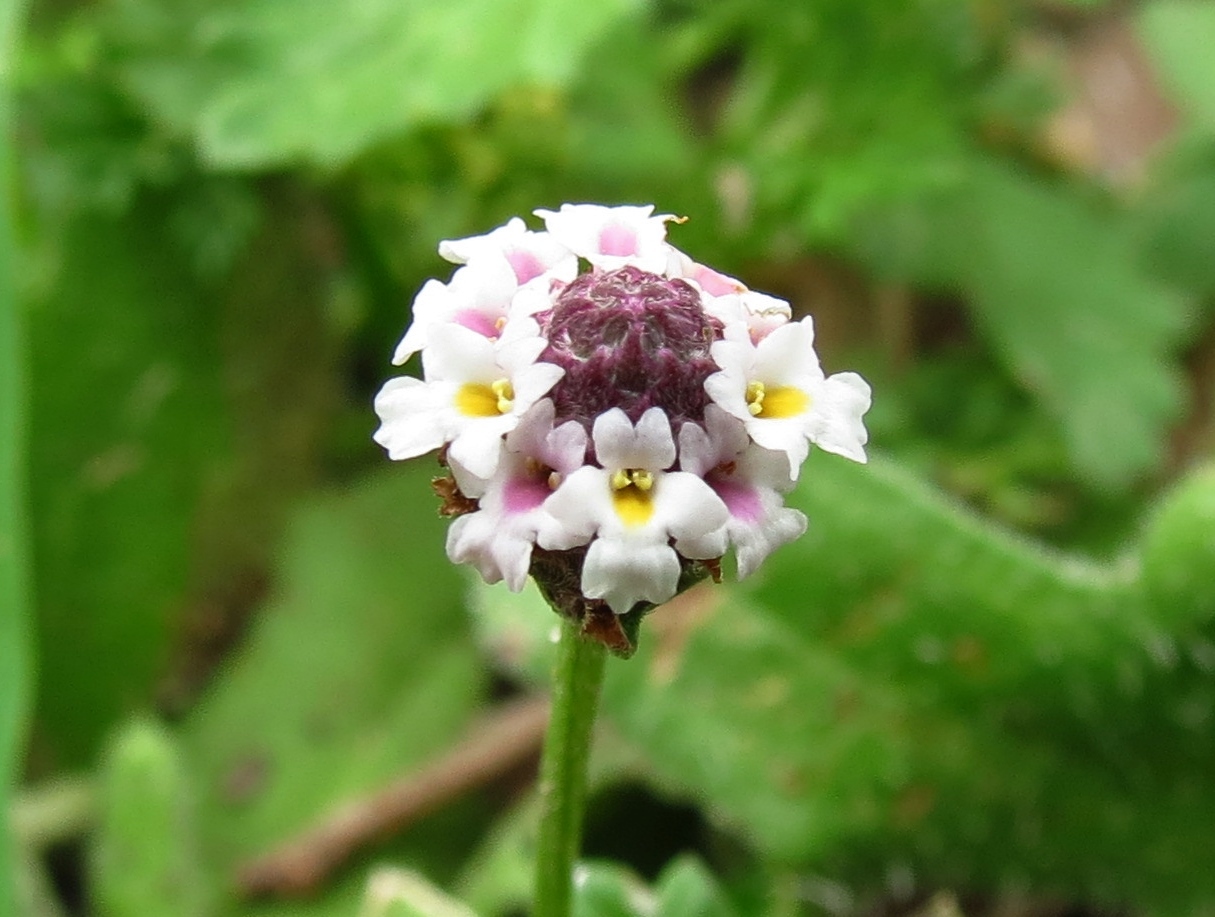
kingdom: Plantae
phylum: Tracheophyta
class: Magnoliopsida
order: Lamiales
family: Verbenaceae
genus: Phyla
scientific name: Phyla fruticosa
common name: Diamondleaf fogfruit
